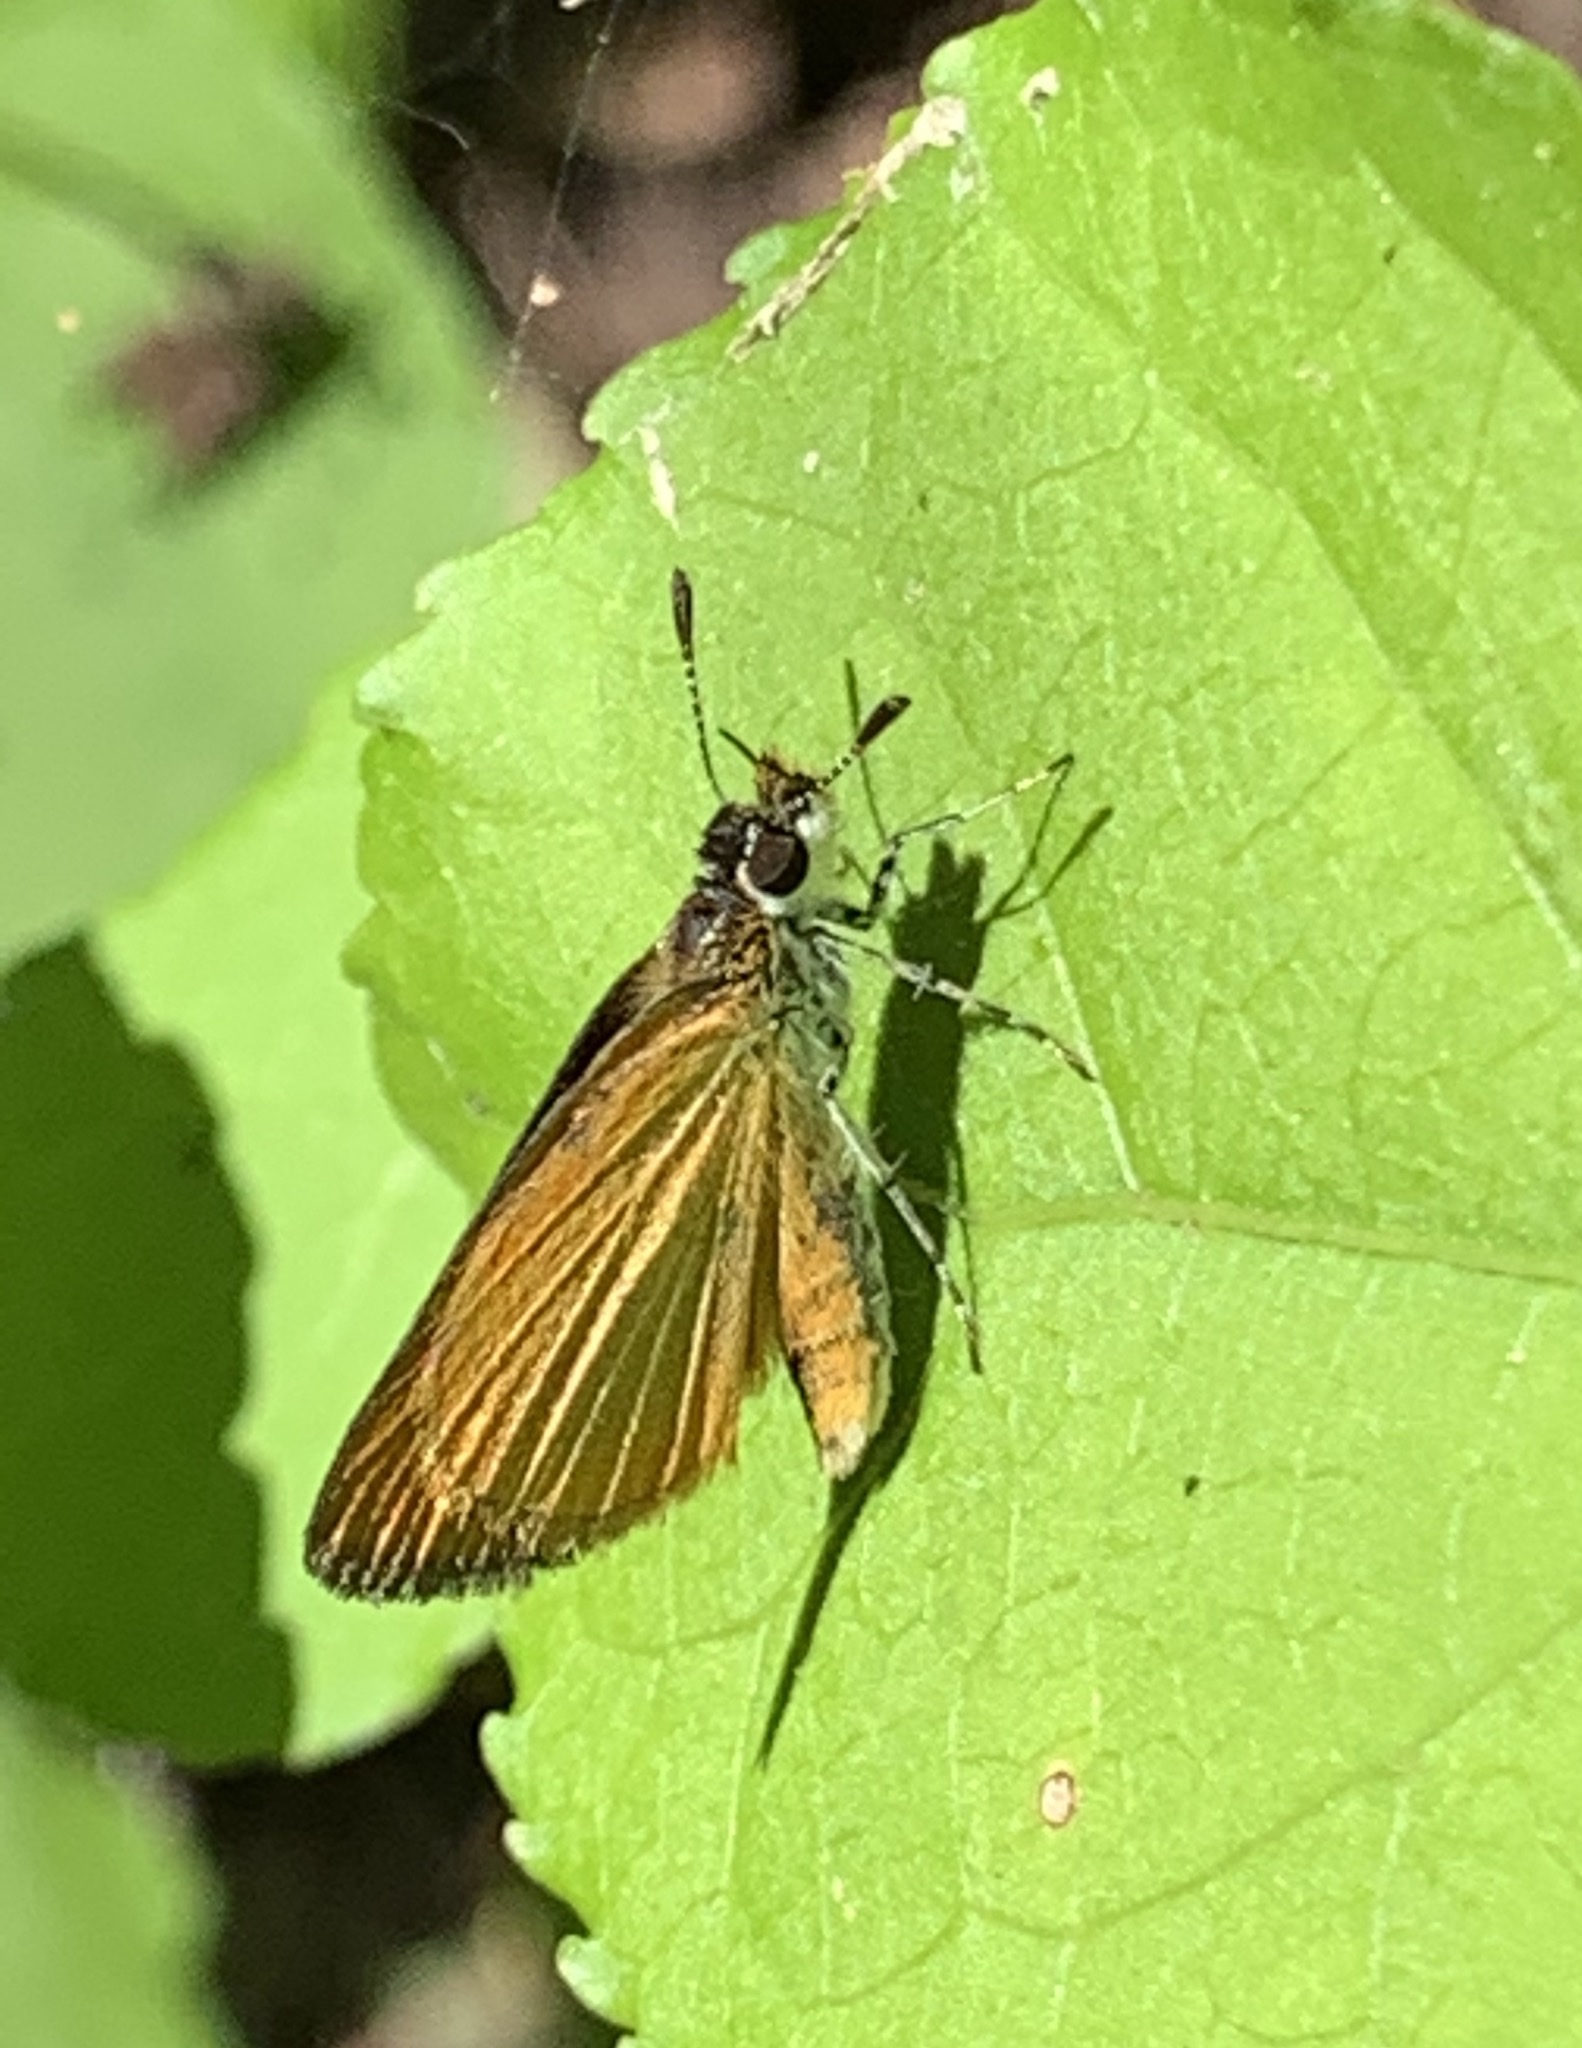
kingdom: Animalia
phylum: Arthropoda
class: Insecta
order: Lepidoptera
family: Hesperiidae
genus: Ancyloxypha
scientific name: Ancyloxypha numitor
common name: Least skipper
